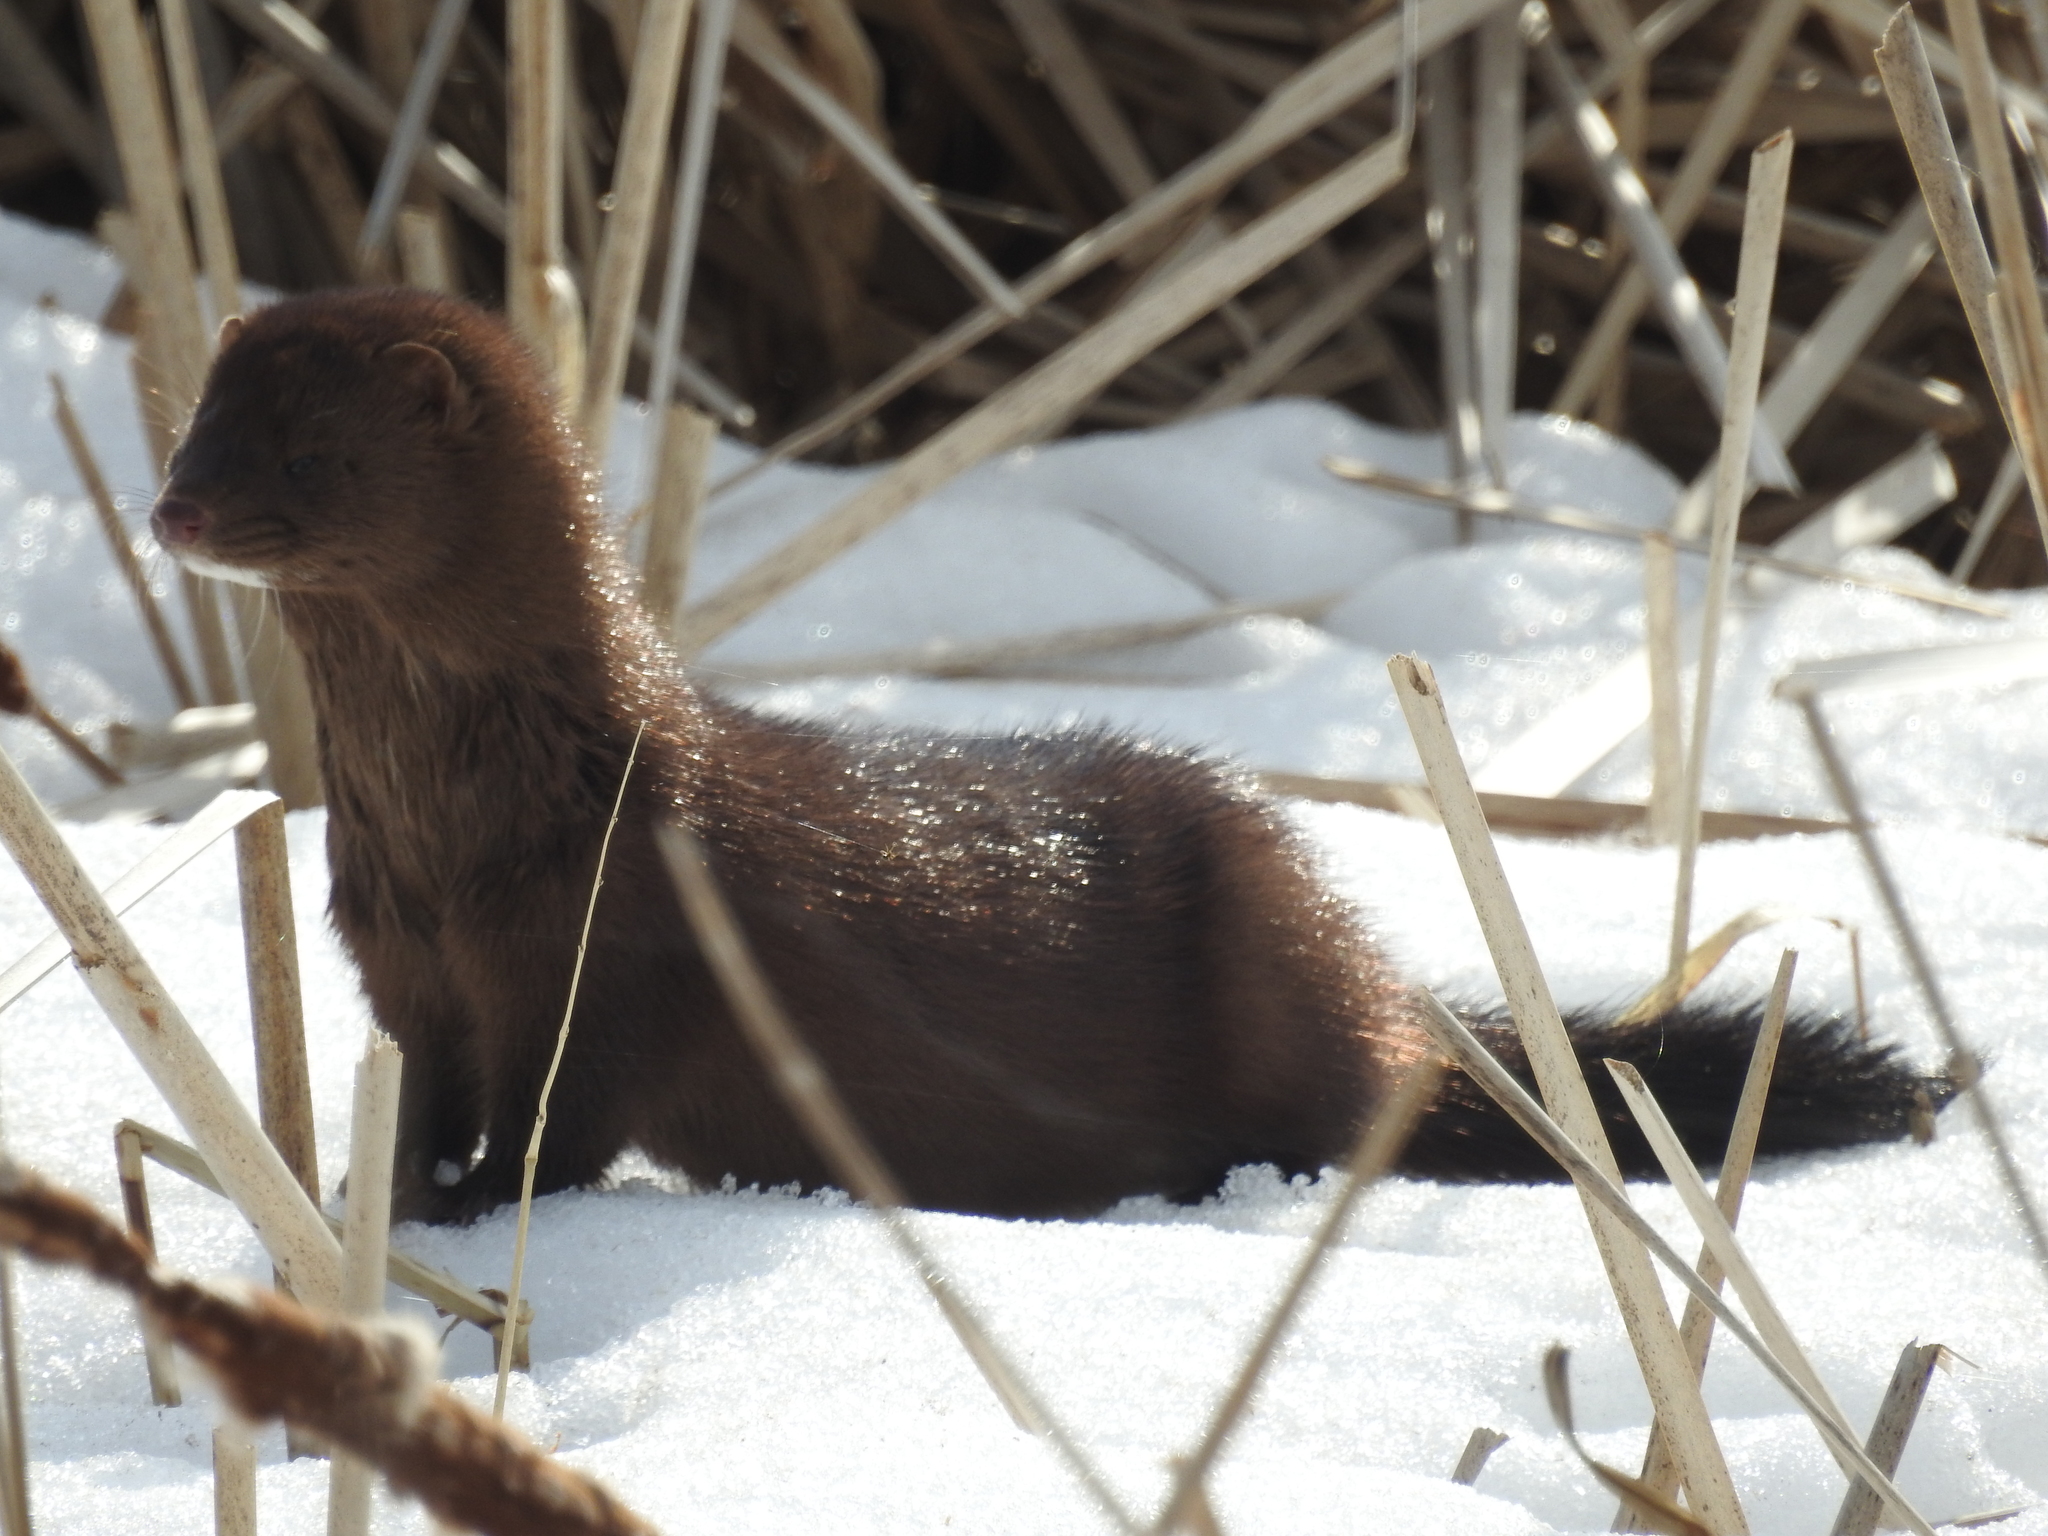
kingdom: Animalia
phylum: Chordata
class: Mammalia
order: Carnivora
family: Mustelidae
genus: Mustela
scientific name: Mustela
